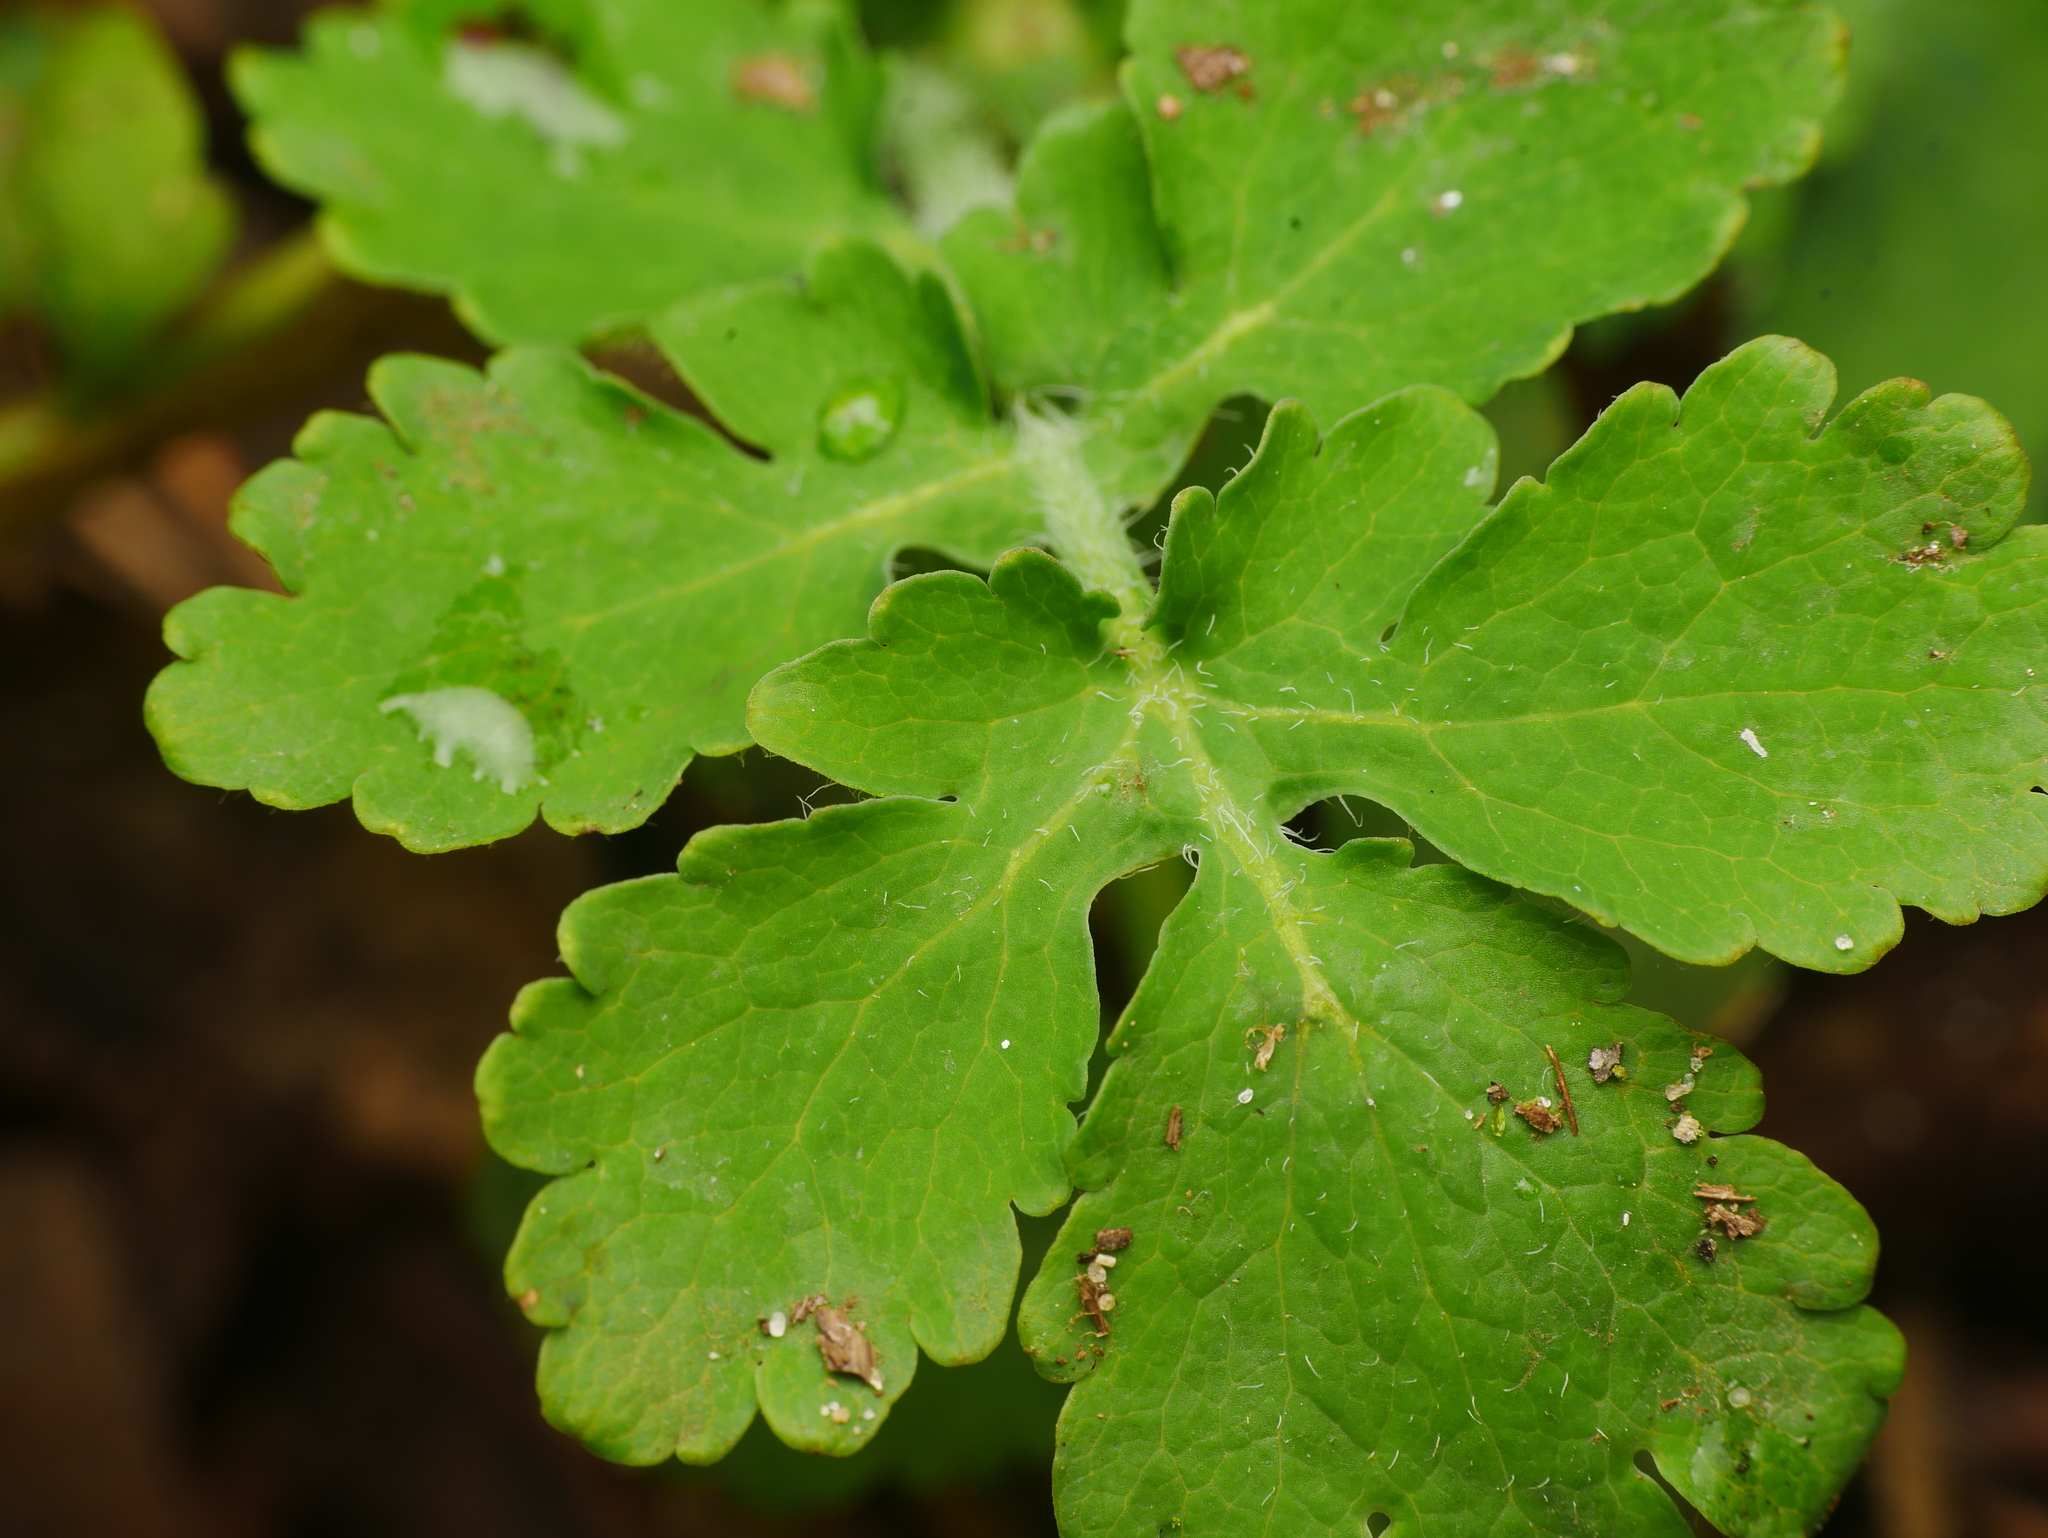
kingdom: Plantae
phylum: Tracheophyta
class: Magnoliopsida
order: Ranunculales
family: Papaveraceae
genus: Chelidonium
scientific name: Chelidonium majus
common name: Greater celandine
